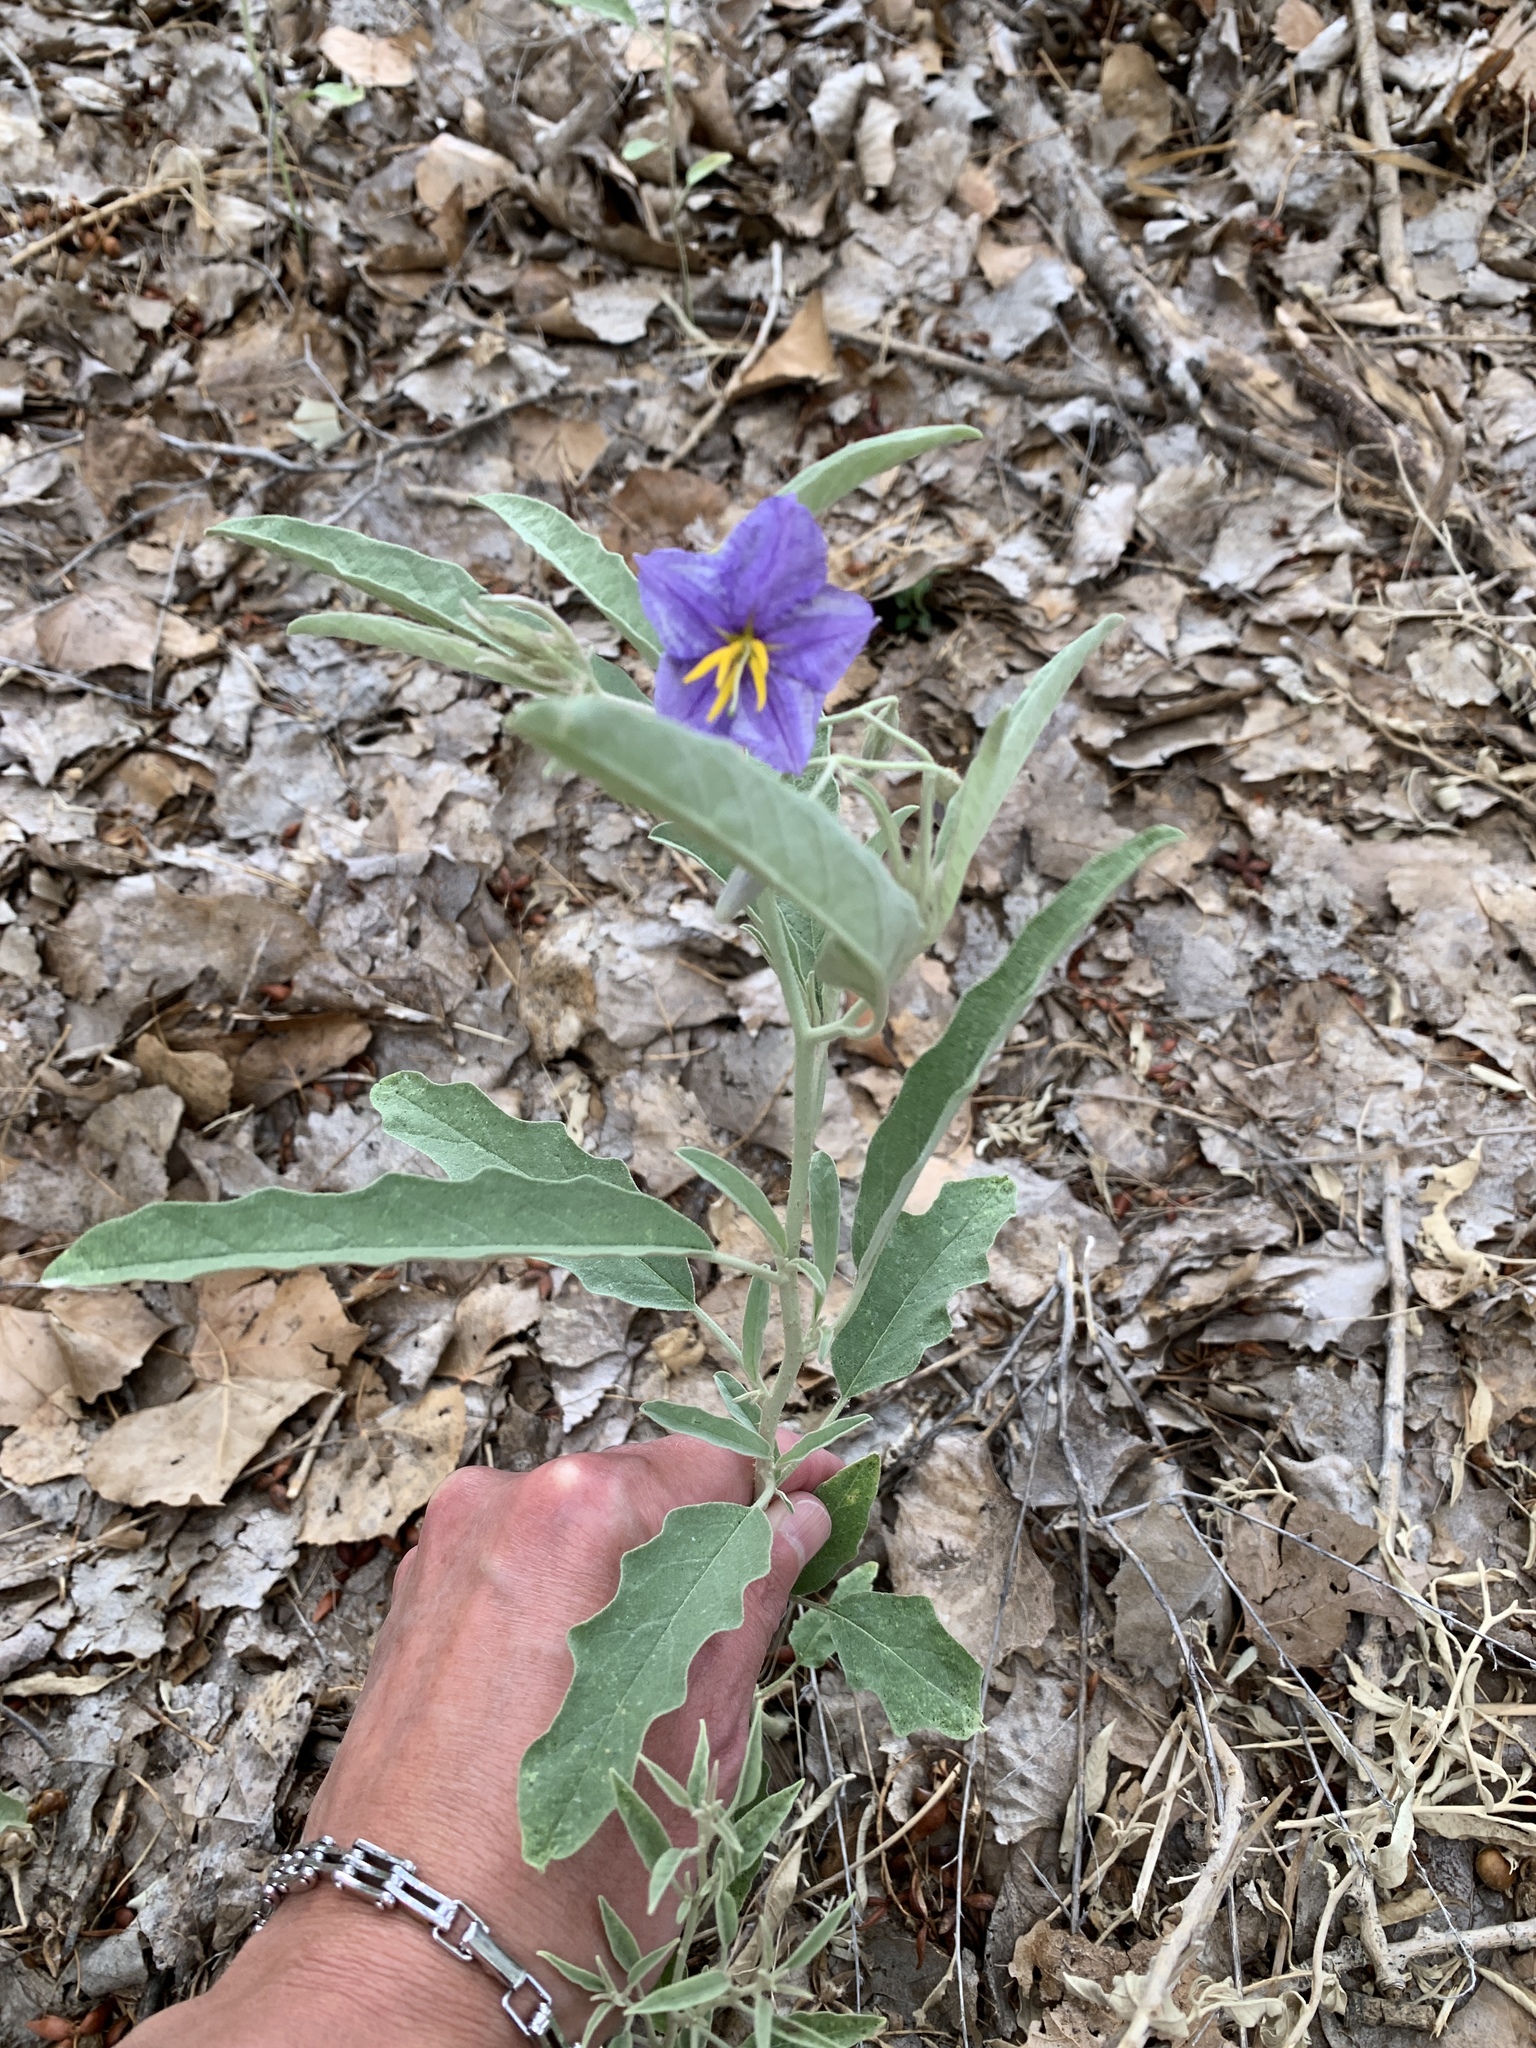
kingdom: Plantae
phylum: Tracheophyta
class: Magnoliopsida
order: Solanales
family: Solanaceae
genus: Solanum
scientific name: Solanum elaeagnifolium
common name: Silverleaf nightshade
